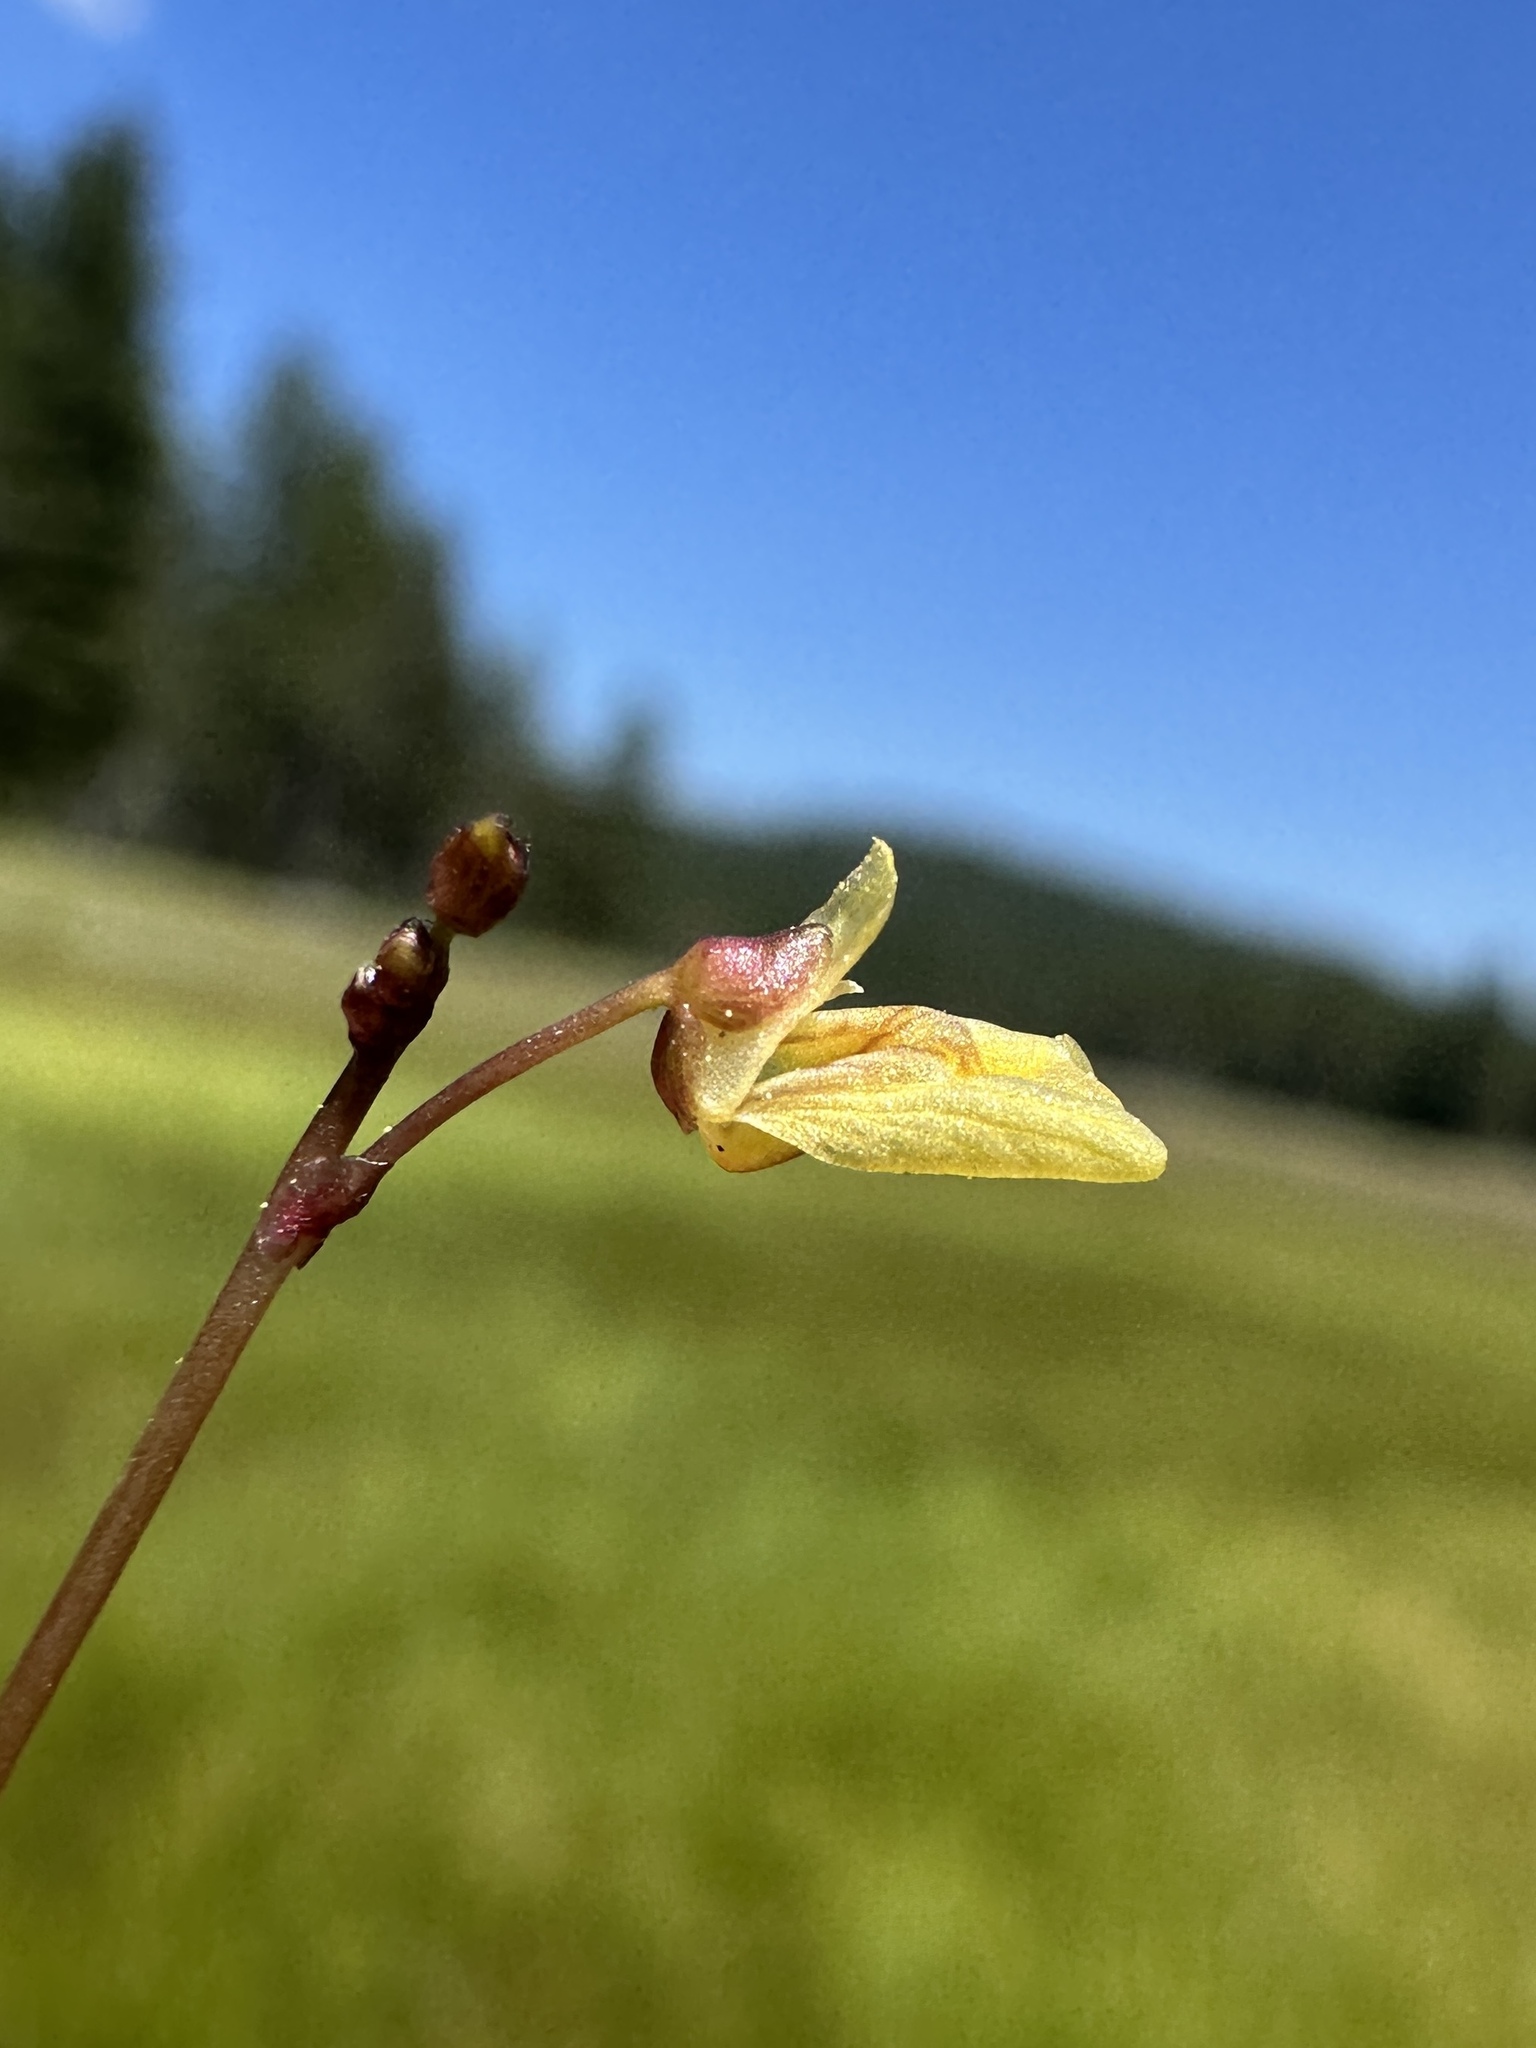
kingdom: Plantae
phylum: Tracheophyta
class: Magnoliopsida
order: Lamiales
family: Lentibulariaceae
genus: Utricularia
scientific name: Utricularia minor
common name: Lesser bladderwort
